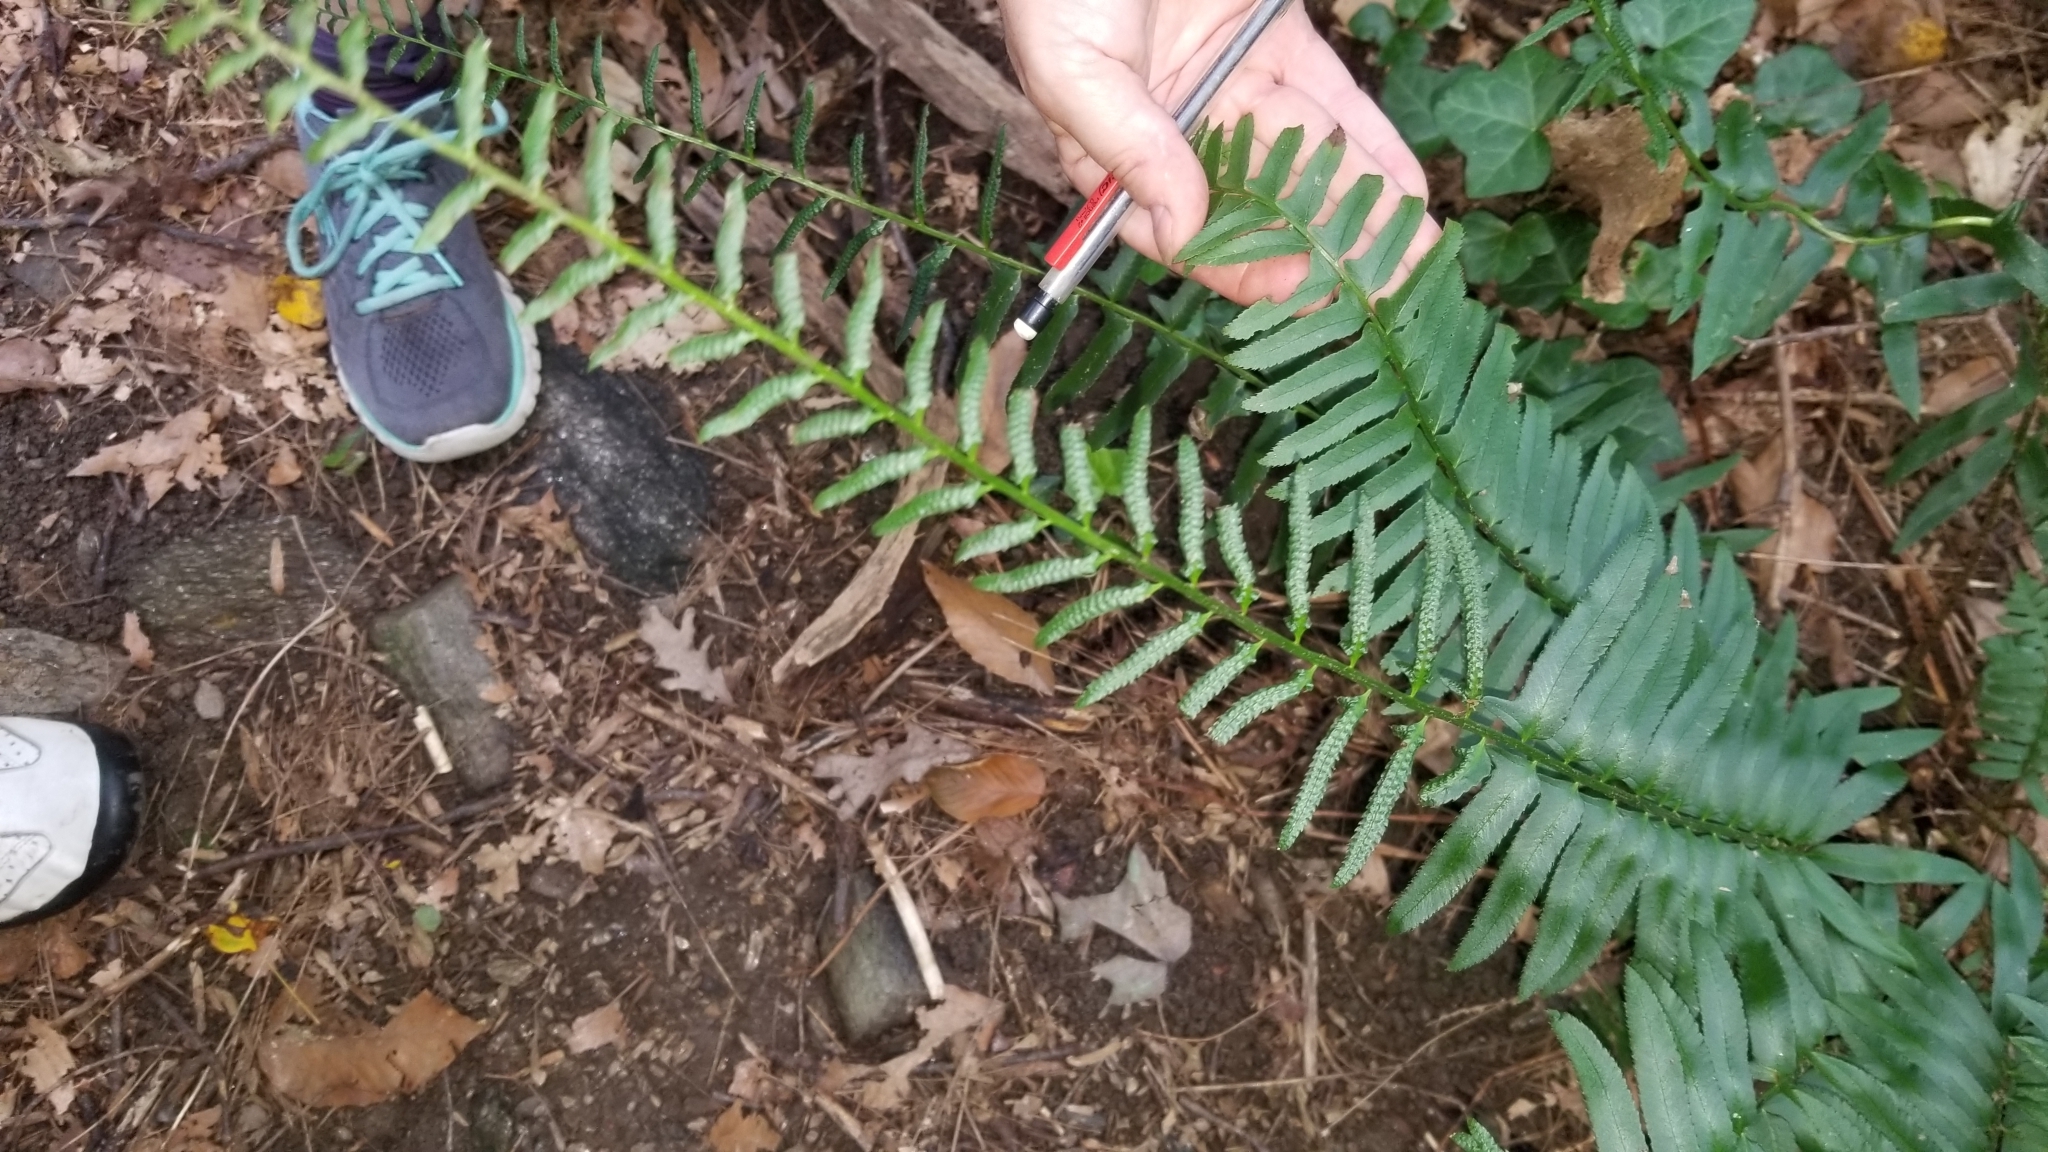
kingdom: Plantae
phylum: Tracheophyta
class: Polypodiopsida
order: Polypodiales
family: Dryopteridaceae
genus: Polystichum
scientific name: Polystichum acrostichoides
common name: Christmas fern
